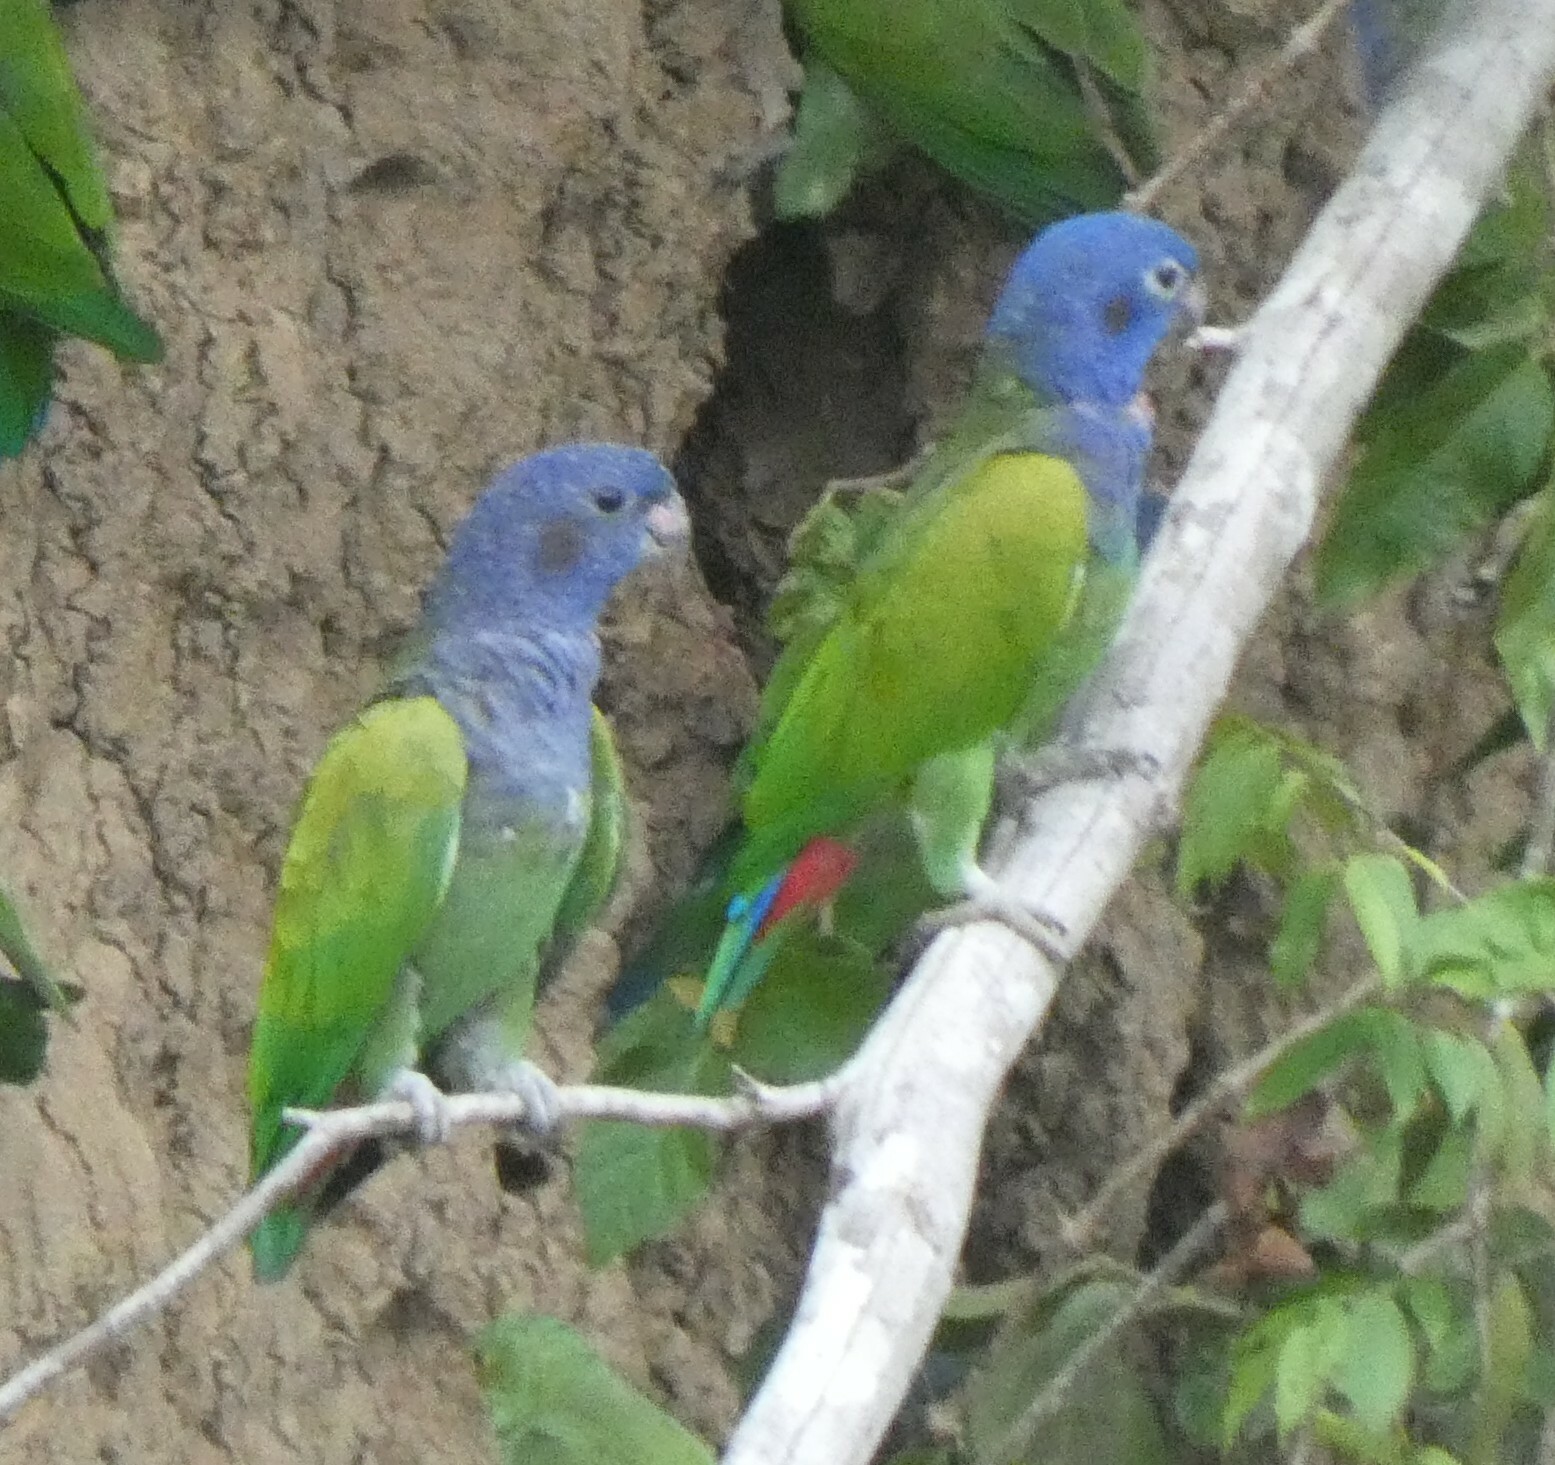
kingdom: Animalia
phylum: Chordata
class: Aves
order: Psittaciformes
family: Psittacidae
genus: Pionus
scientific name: Pionus menstruus
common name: Blue-headed parrot
